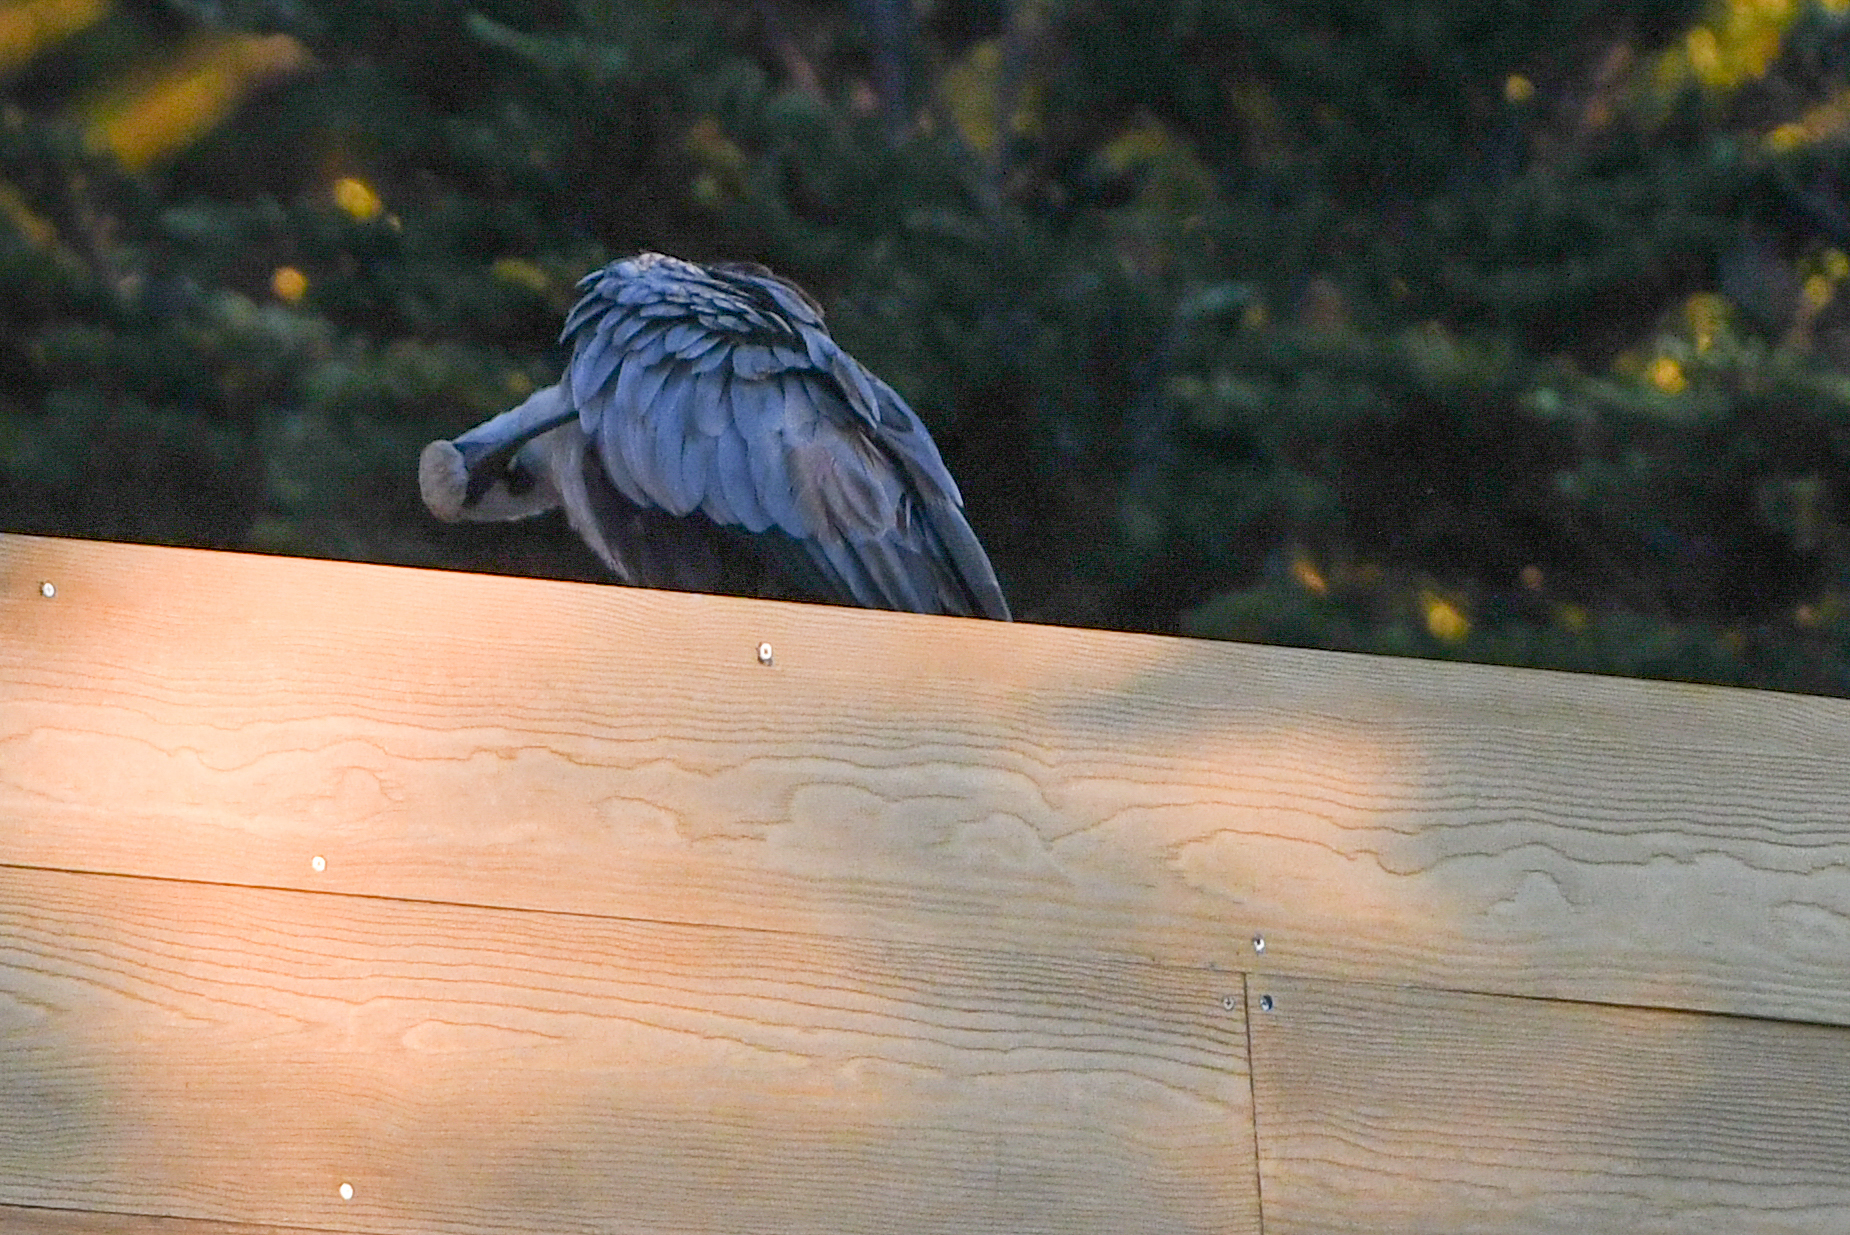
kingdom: Animalia
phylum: Chordata
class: Aves
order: Pelecaniformes
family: Threskiornithidae
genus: Theristicus
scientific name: Theristicus melanopis
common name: Black-faced ibis
